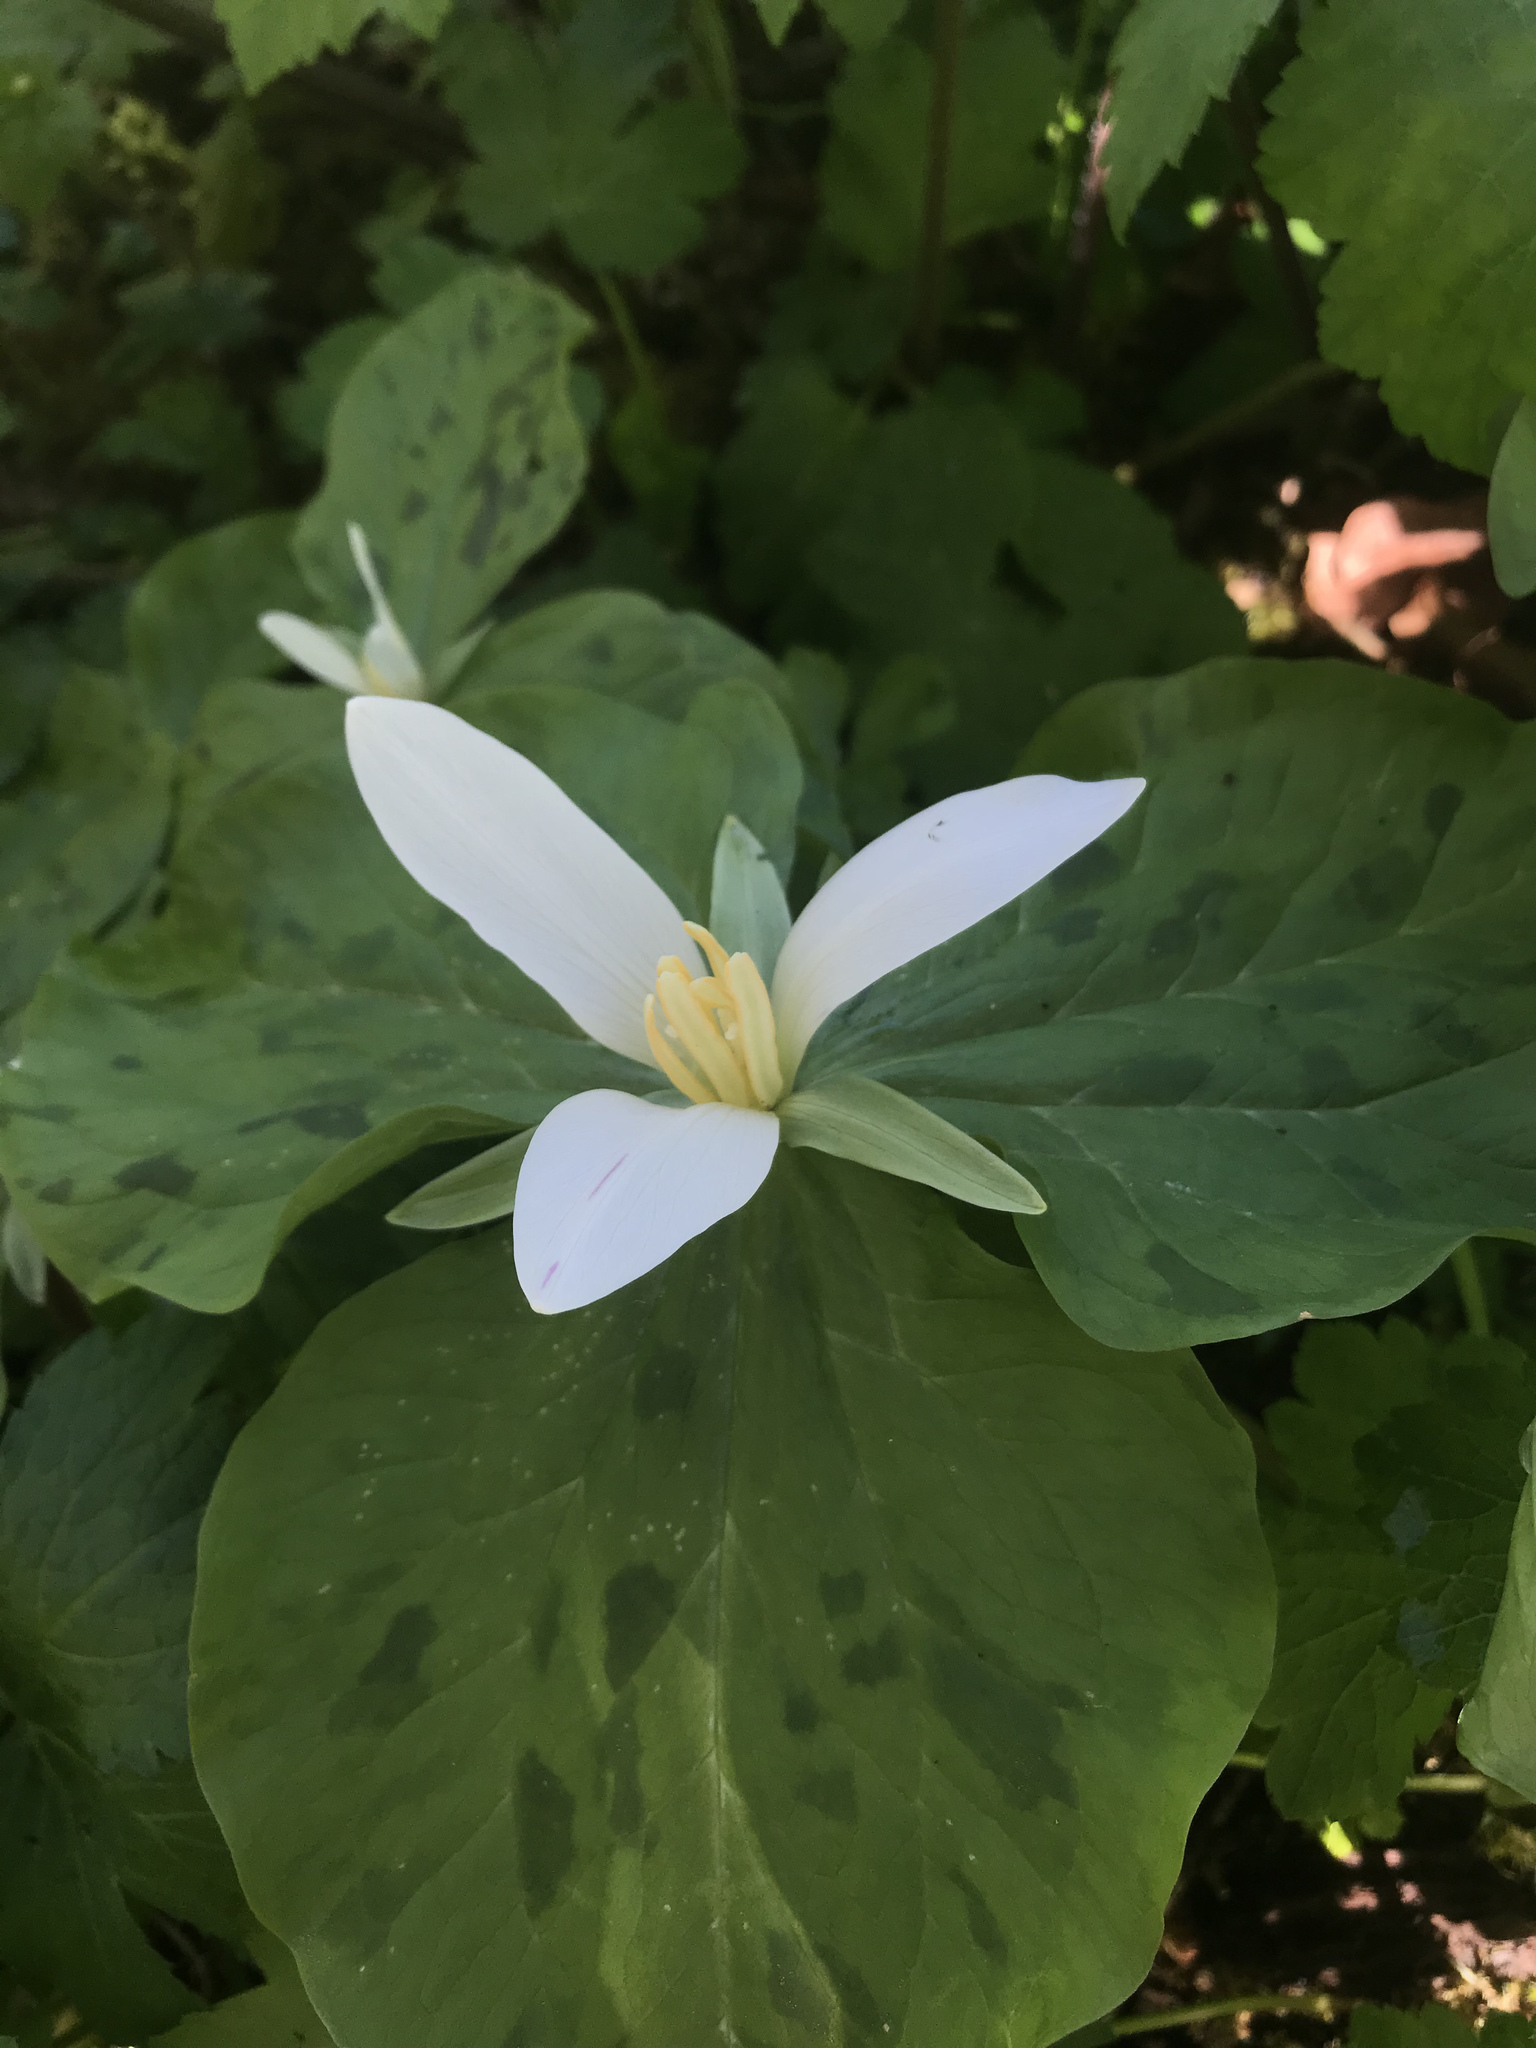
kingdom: Plantae
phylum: Tracheophyta
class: Liliopsida
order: Liliales
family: Melanthiaceae
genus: Trillium
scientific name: Trillium albidum
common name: Freeman's trillium
